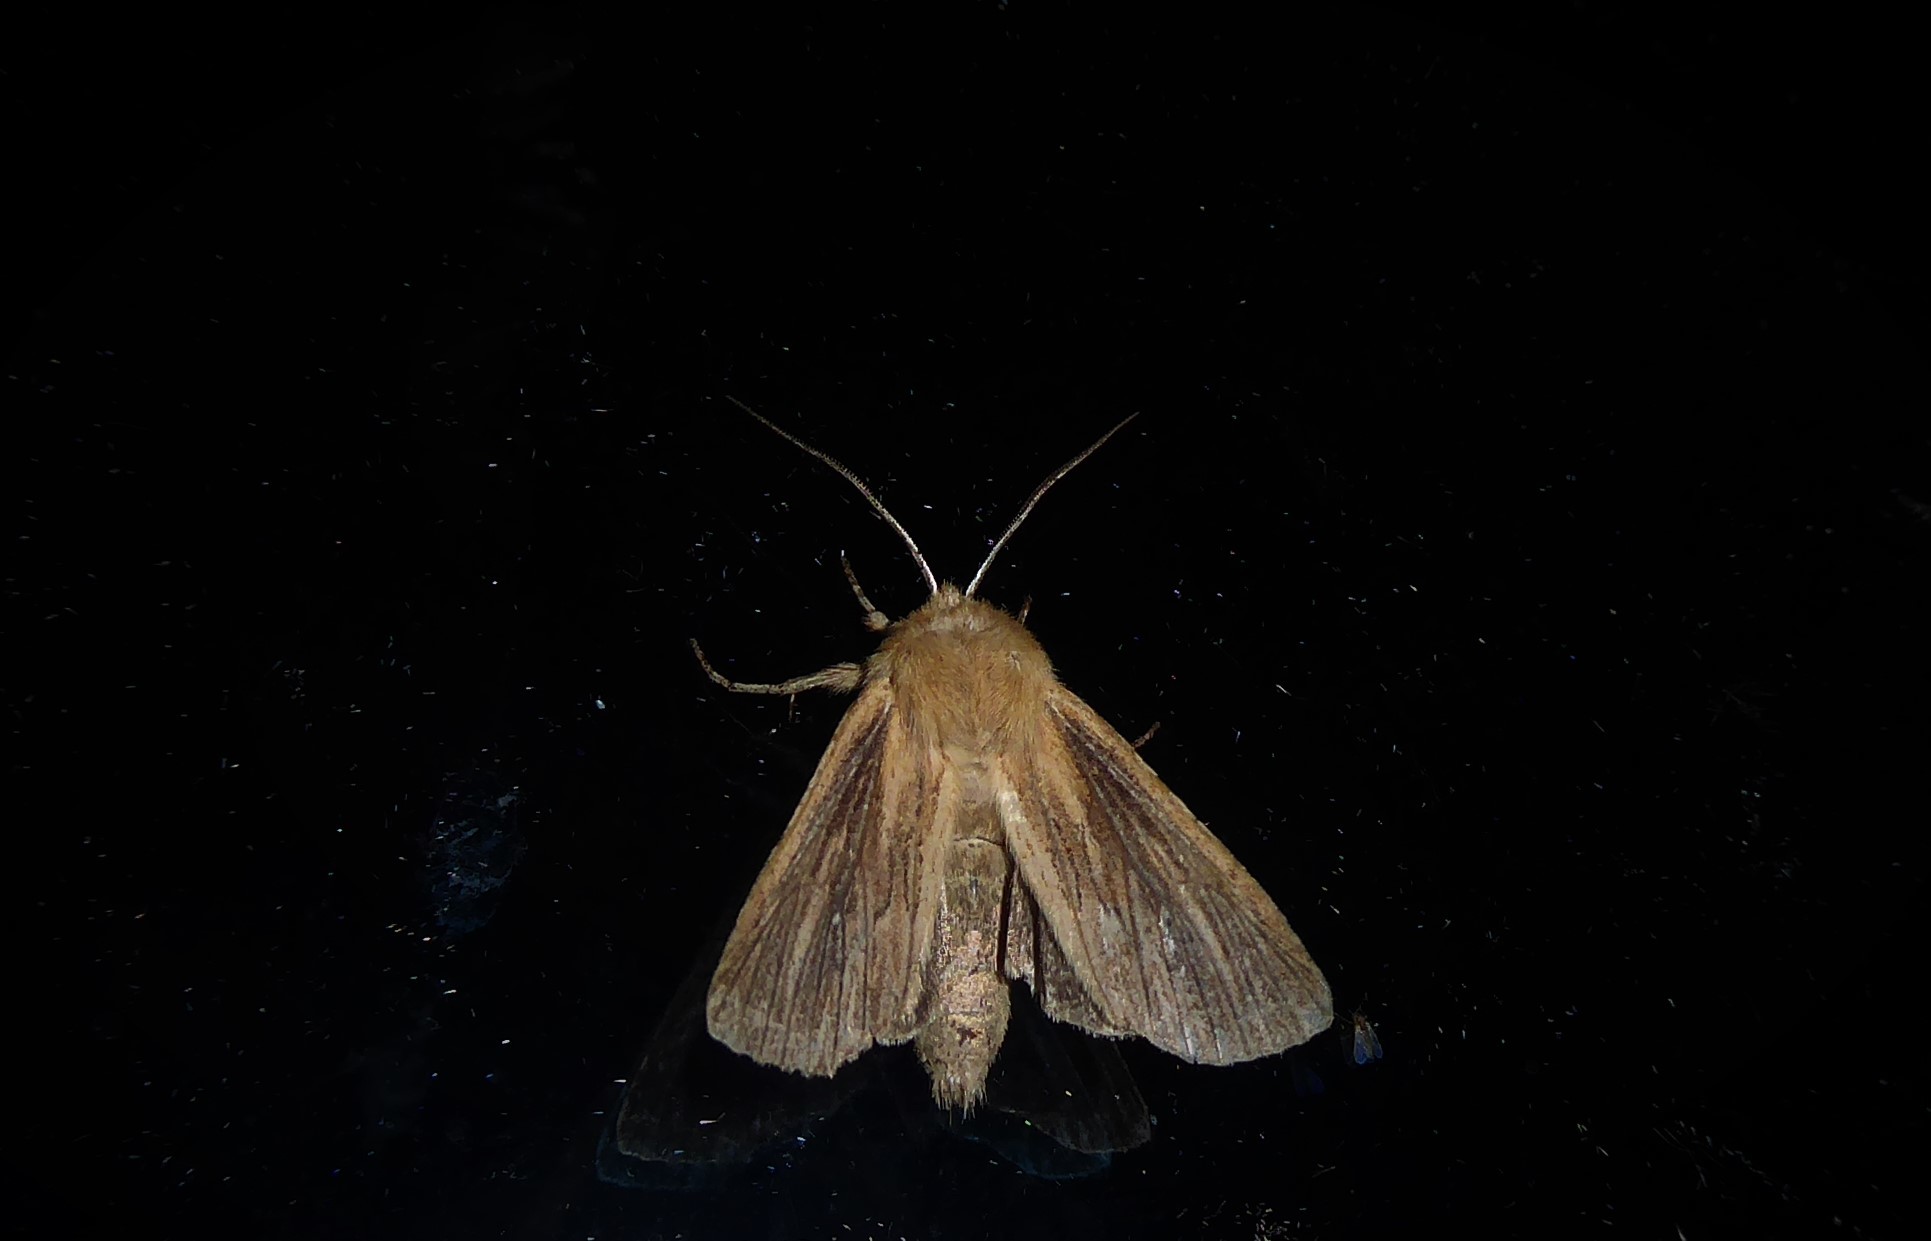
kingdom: Animalia
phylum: Arthropoda
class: Insecta
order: Lepidoptera
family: Noctuidae
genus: Ichneutica
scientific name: Ichneutica arotis
